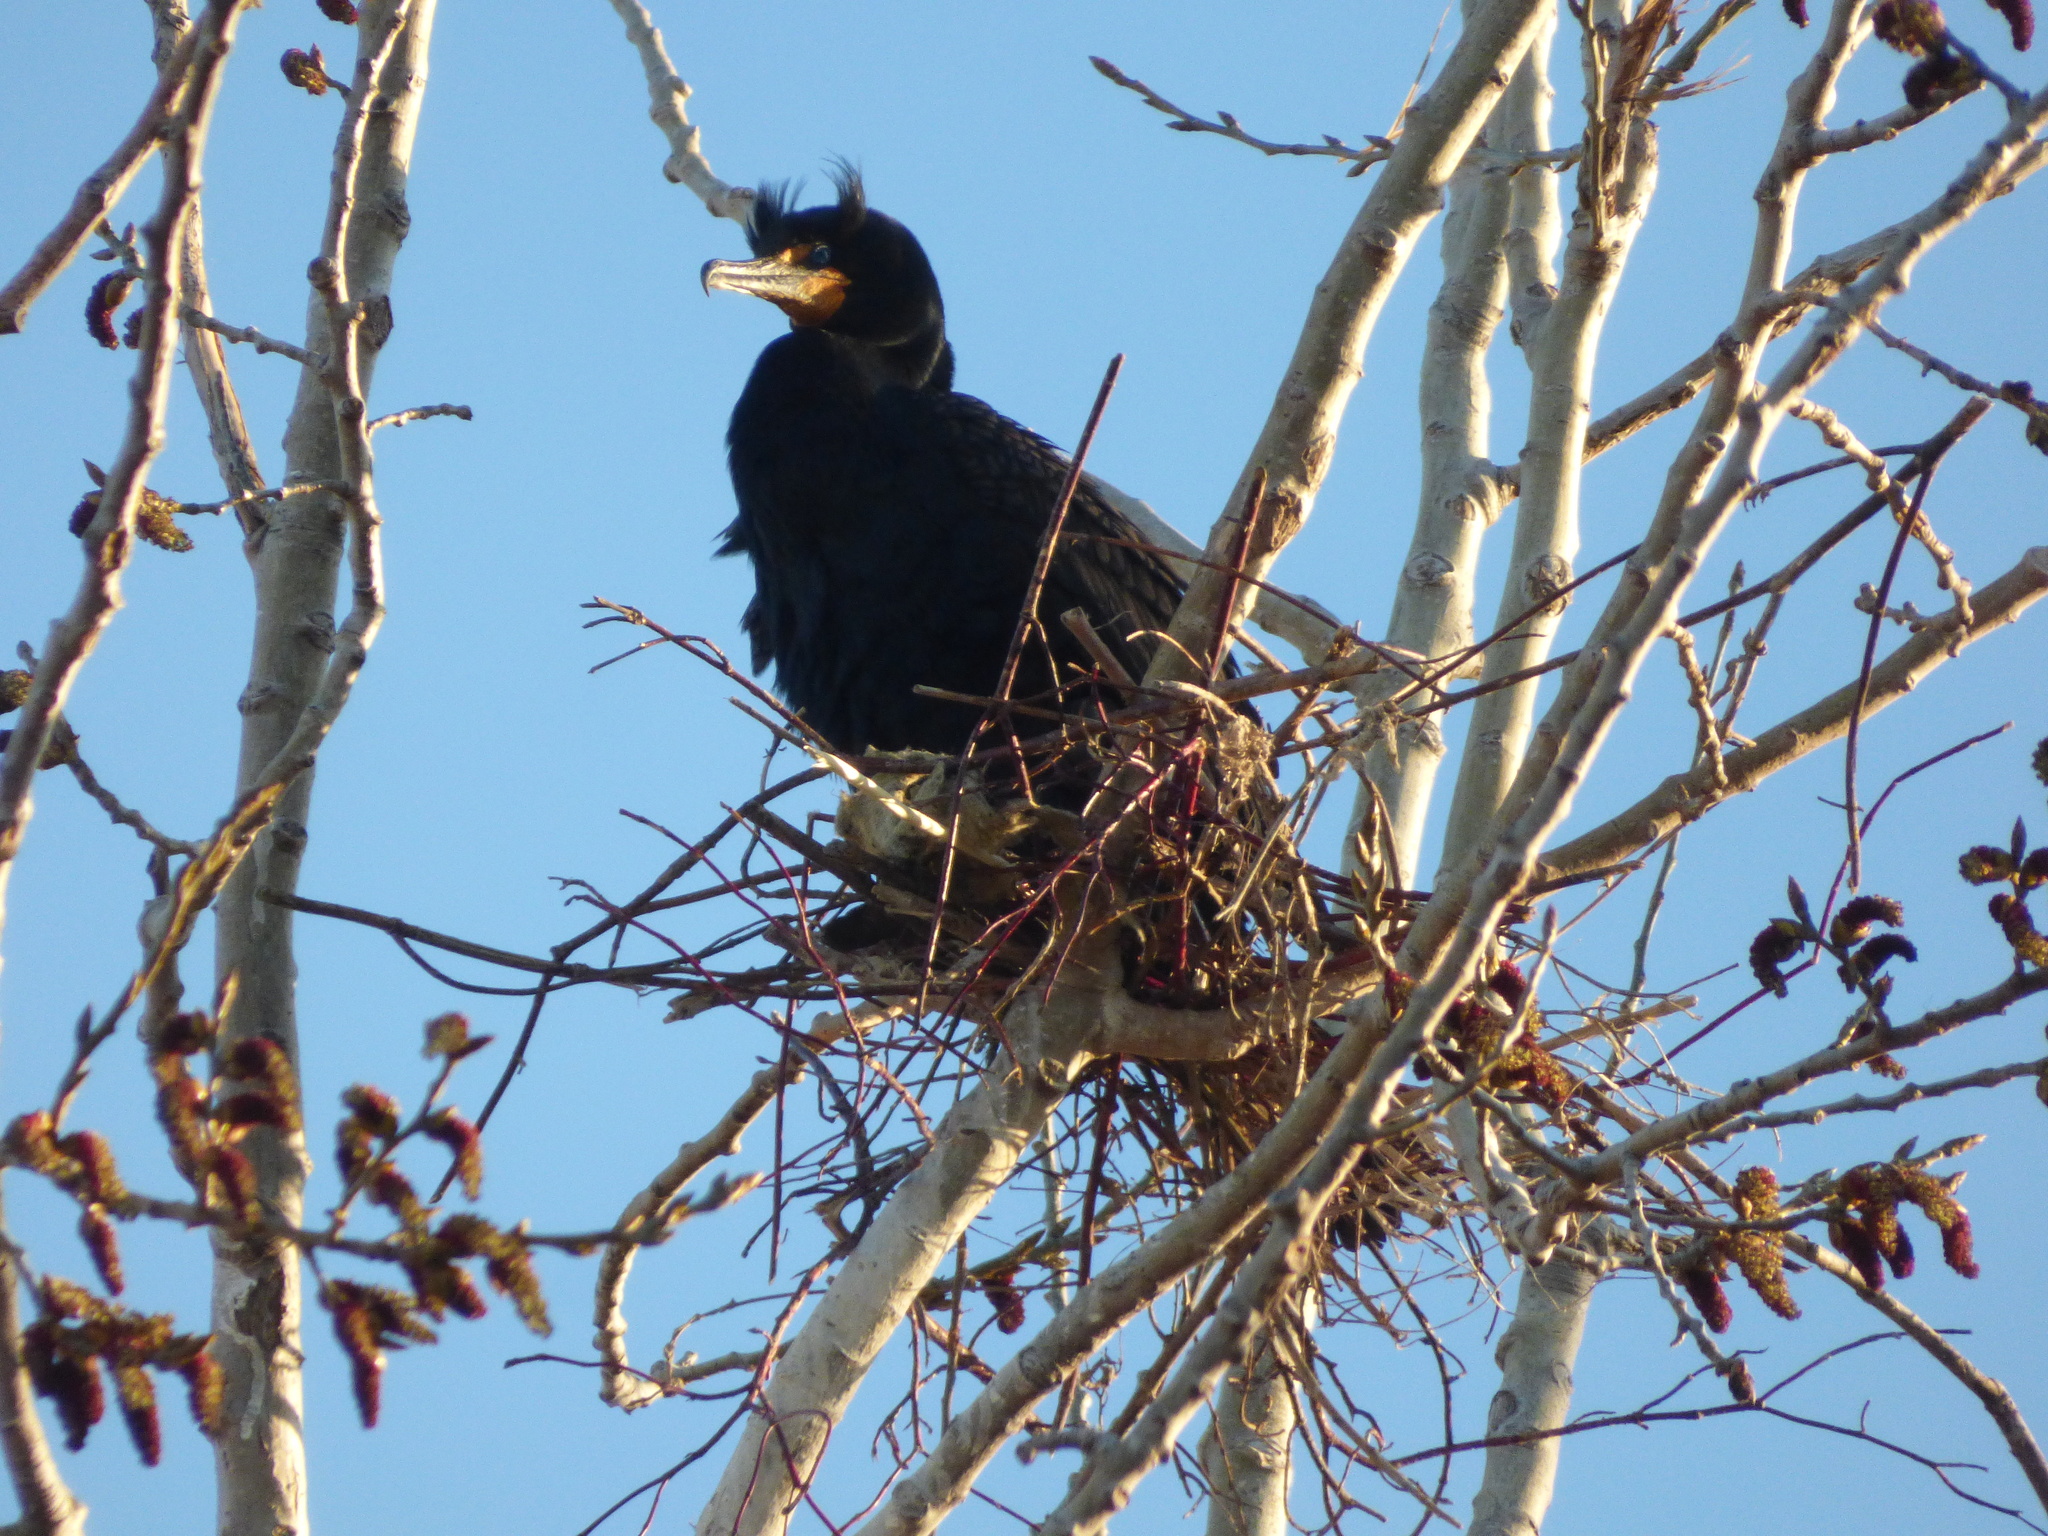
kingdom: Animalia
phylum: Chordata
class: Aves
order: Suliformes
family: Phalacrocoracidae
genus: Phalacrocorax
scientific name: Phalacrocorax auritus
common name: Double-crested cormorant
